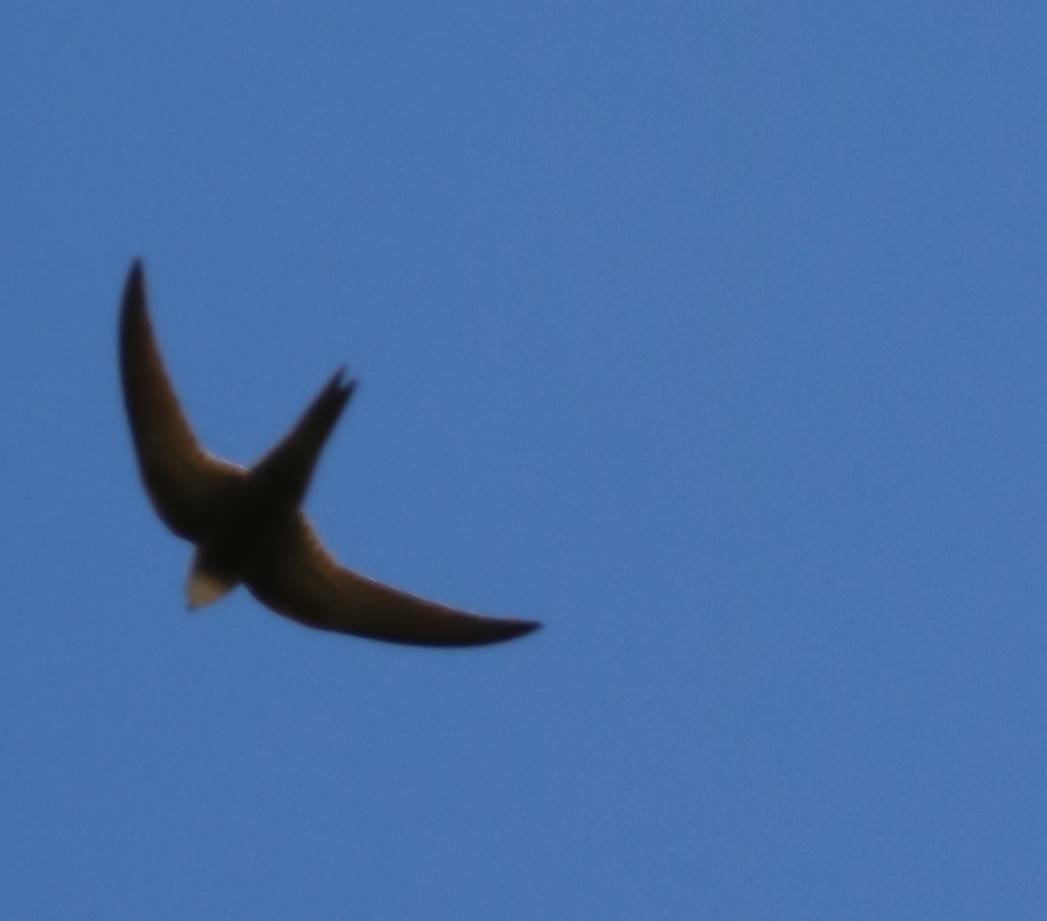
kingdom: Animalia
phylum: Chordata
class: Aves
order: Apodiformes
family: Apodidae
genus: Apus
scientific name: Apus pallidus
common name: Pallid swift
